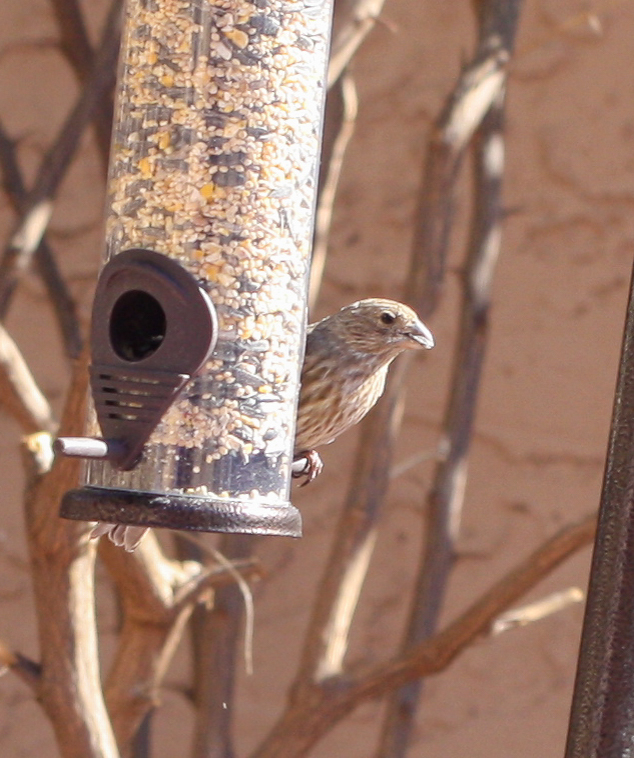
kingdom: Animalia
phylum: Chordata
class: Aves
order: Passeriformes
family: Fringillidae
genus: Haemorhous
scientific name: Haemorhous mexicanus
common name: House finch
